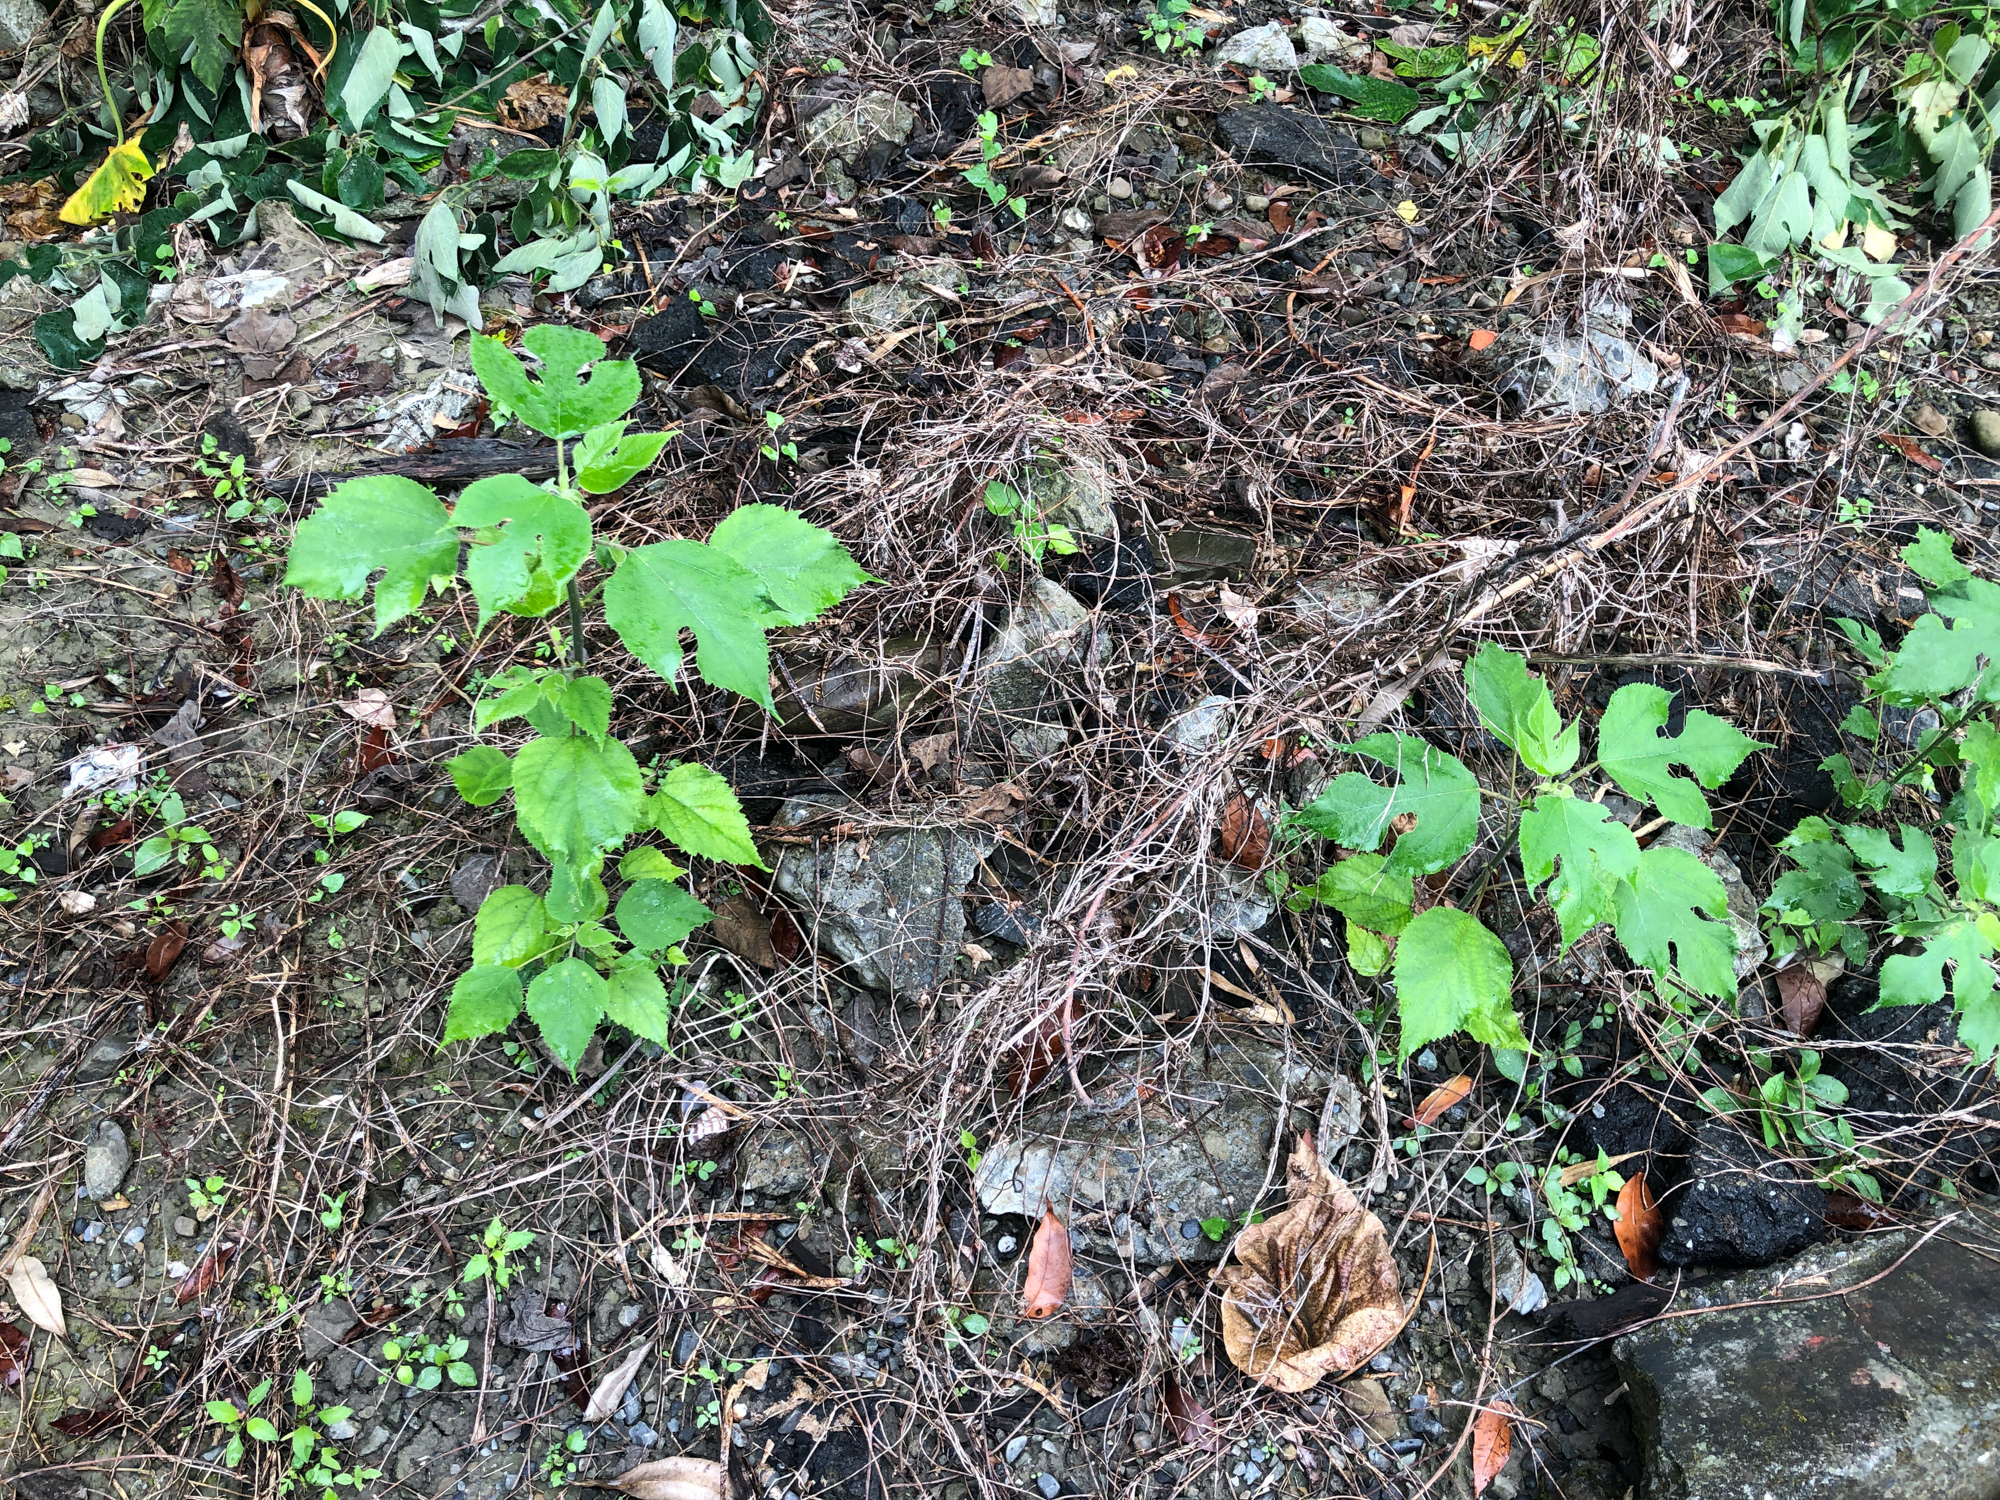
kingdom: Plantae
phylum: Tracheophyta
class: Magnoliopsida
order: Rosales
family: Moraceae
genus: Broussonetia
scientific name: Broussonetia papyrifera
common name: Paper mulberry
